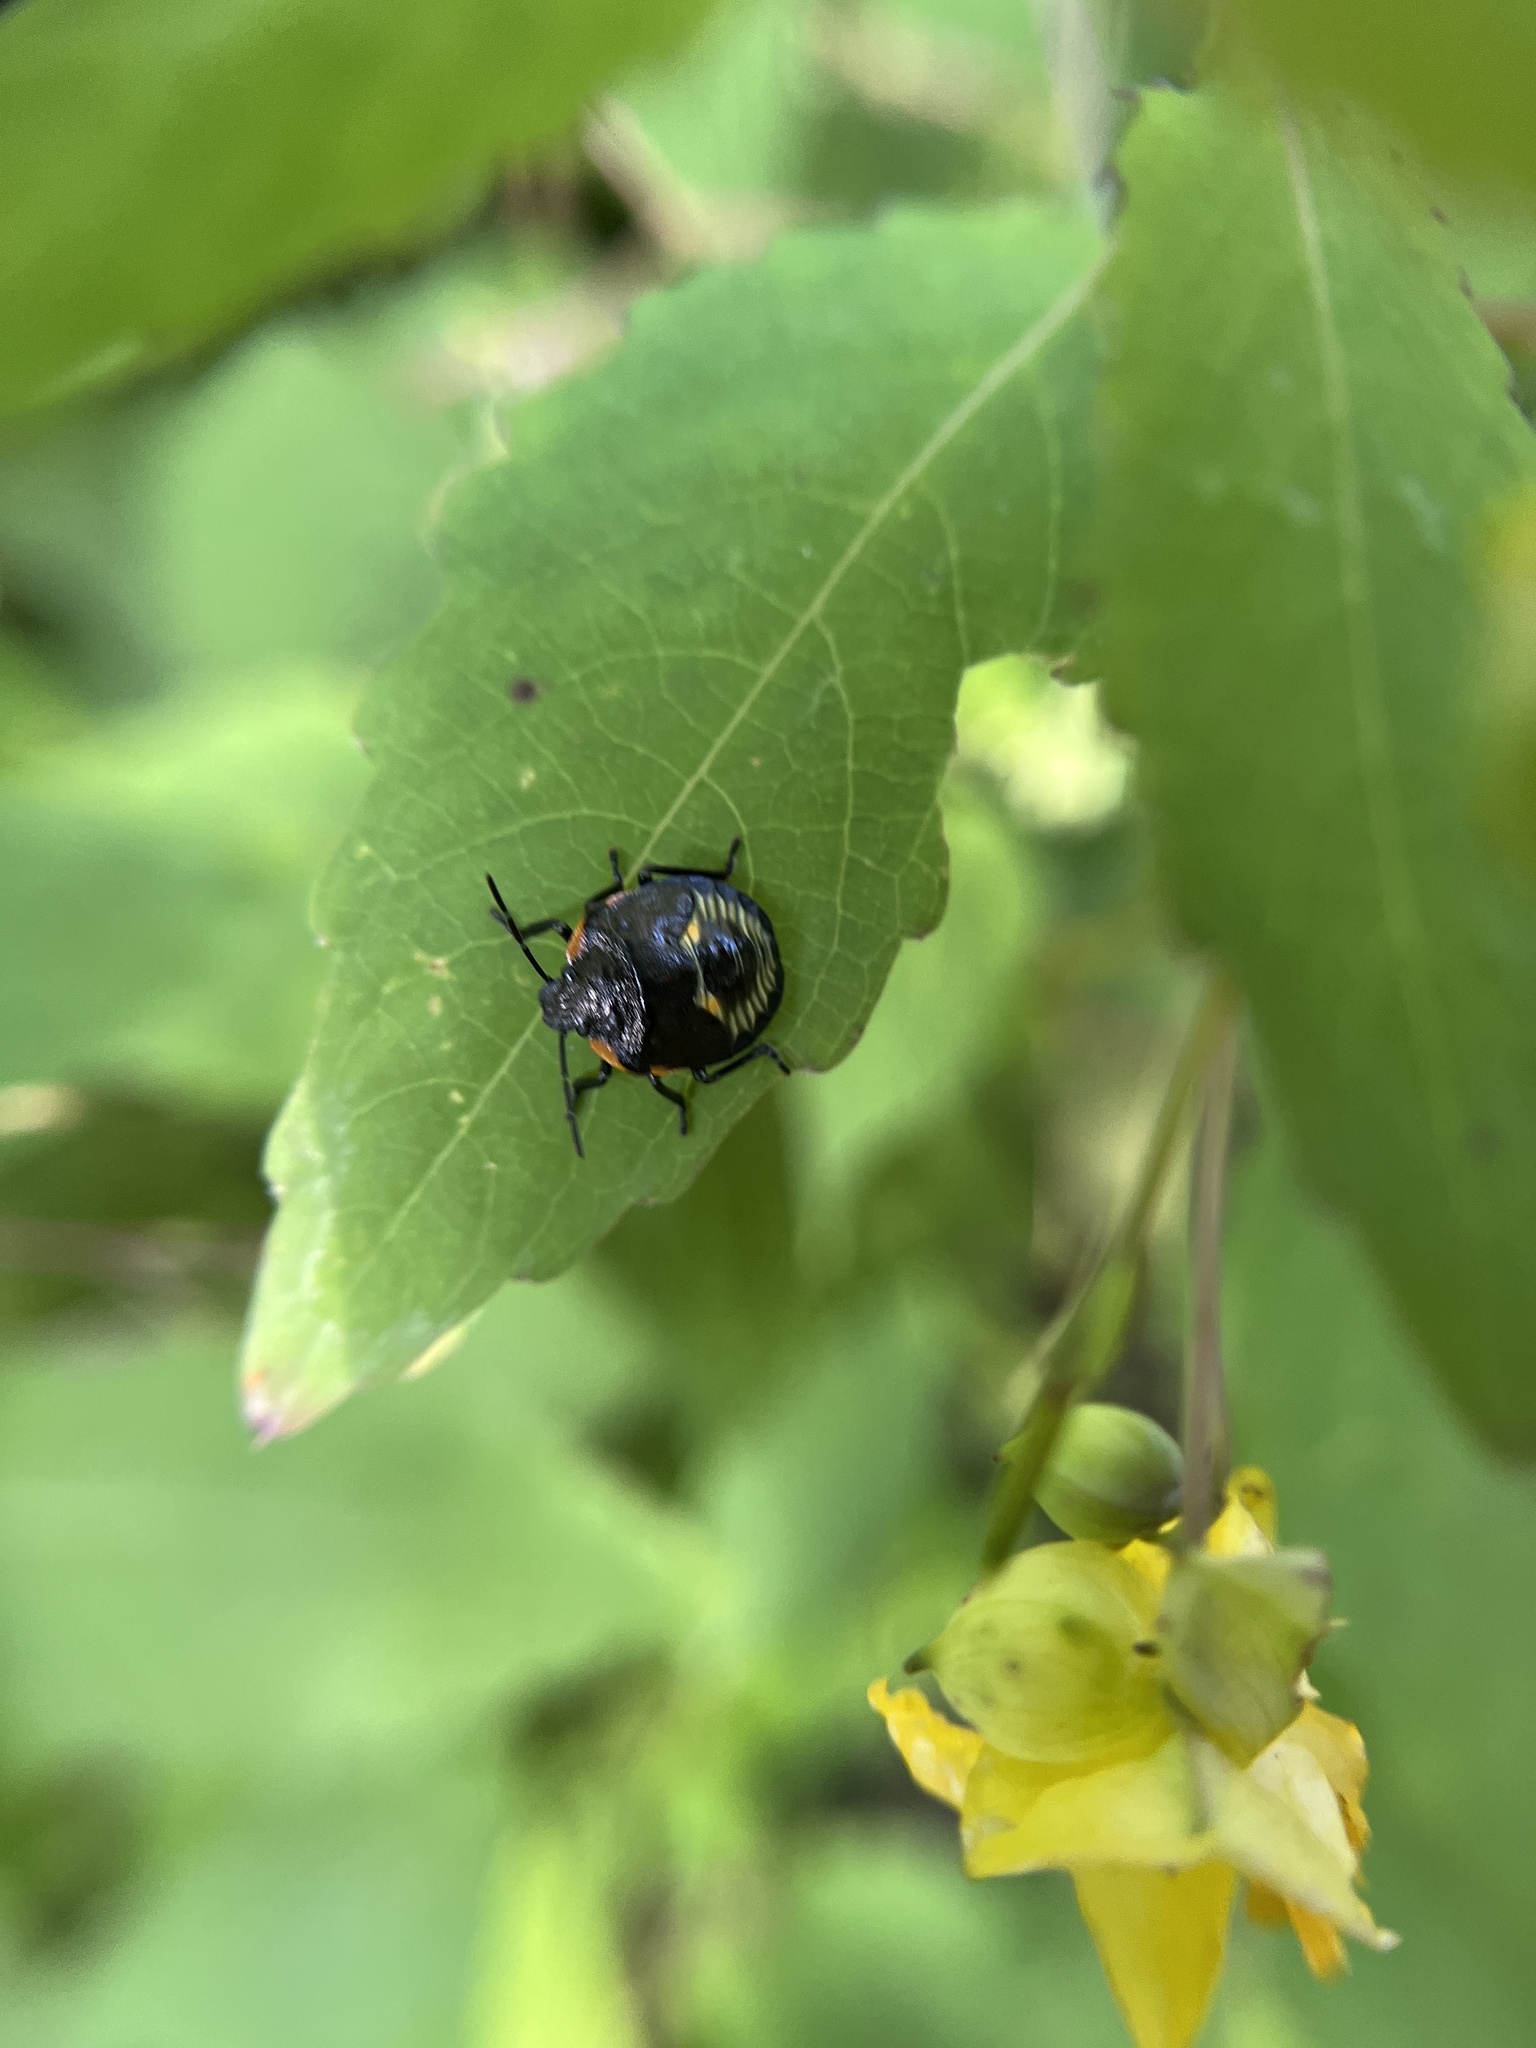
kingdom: Animalia
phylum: Arthropoda
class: Insecta
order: Hemiptera
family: Pentatomidae
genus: Chinavia
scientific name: Chinavia hilaris
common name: Green stink bug
